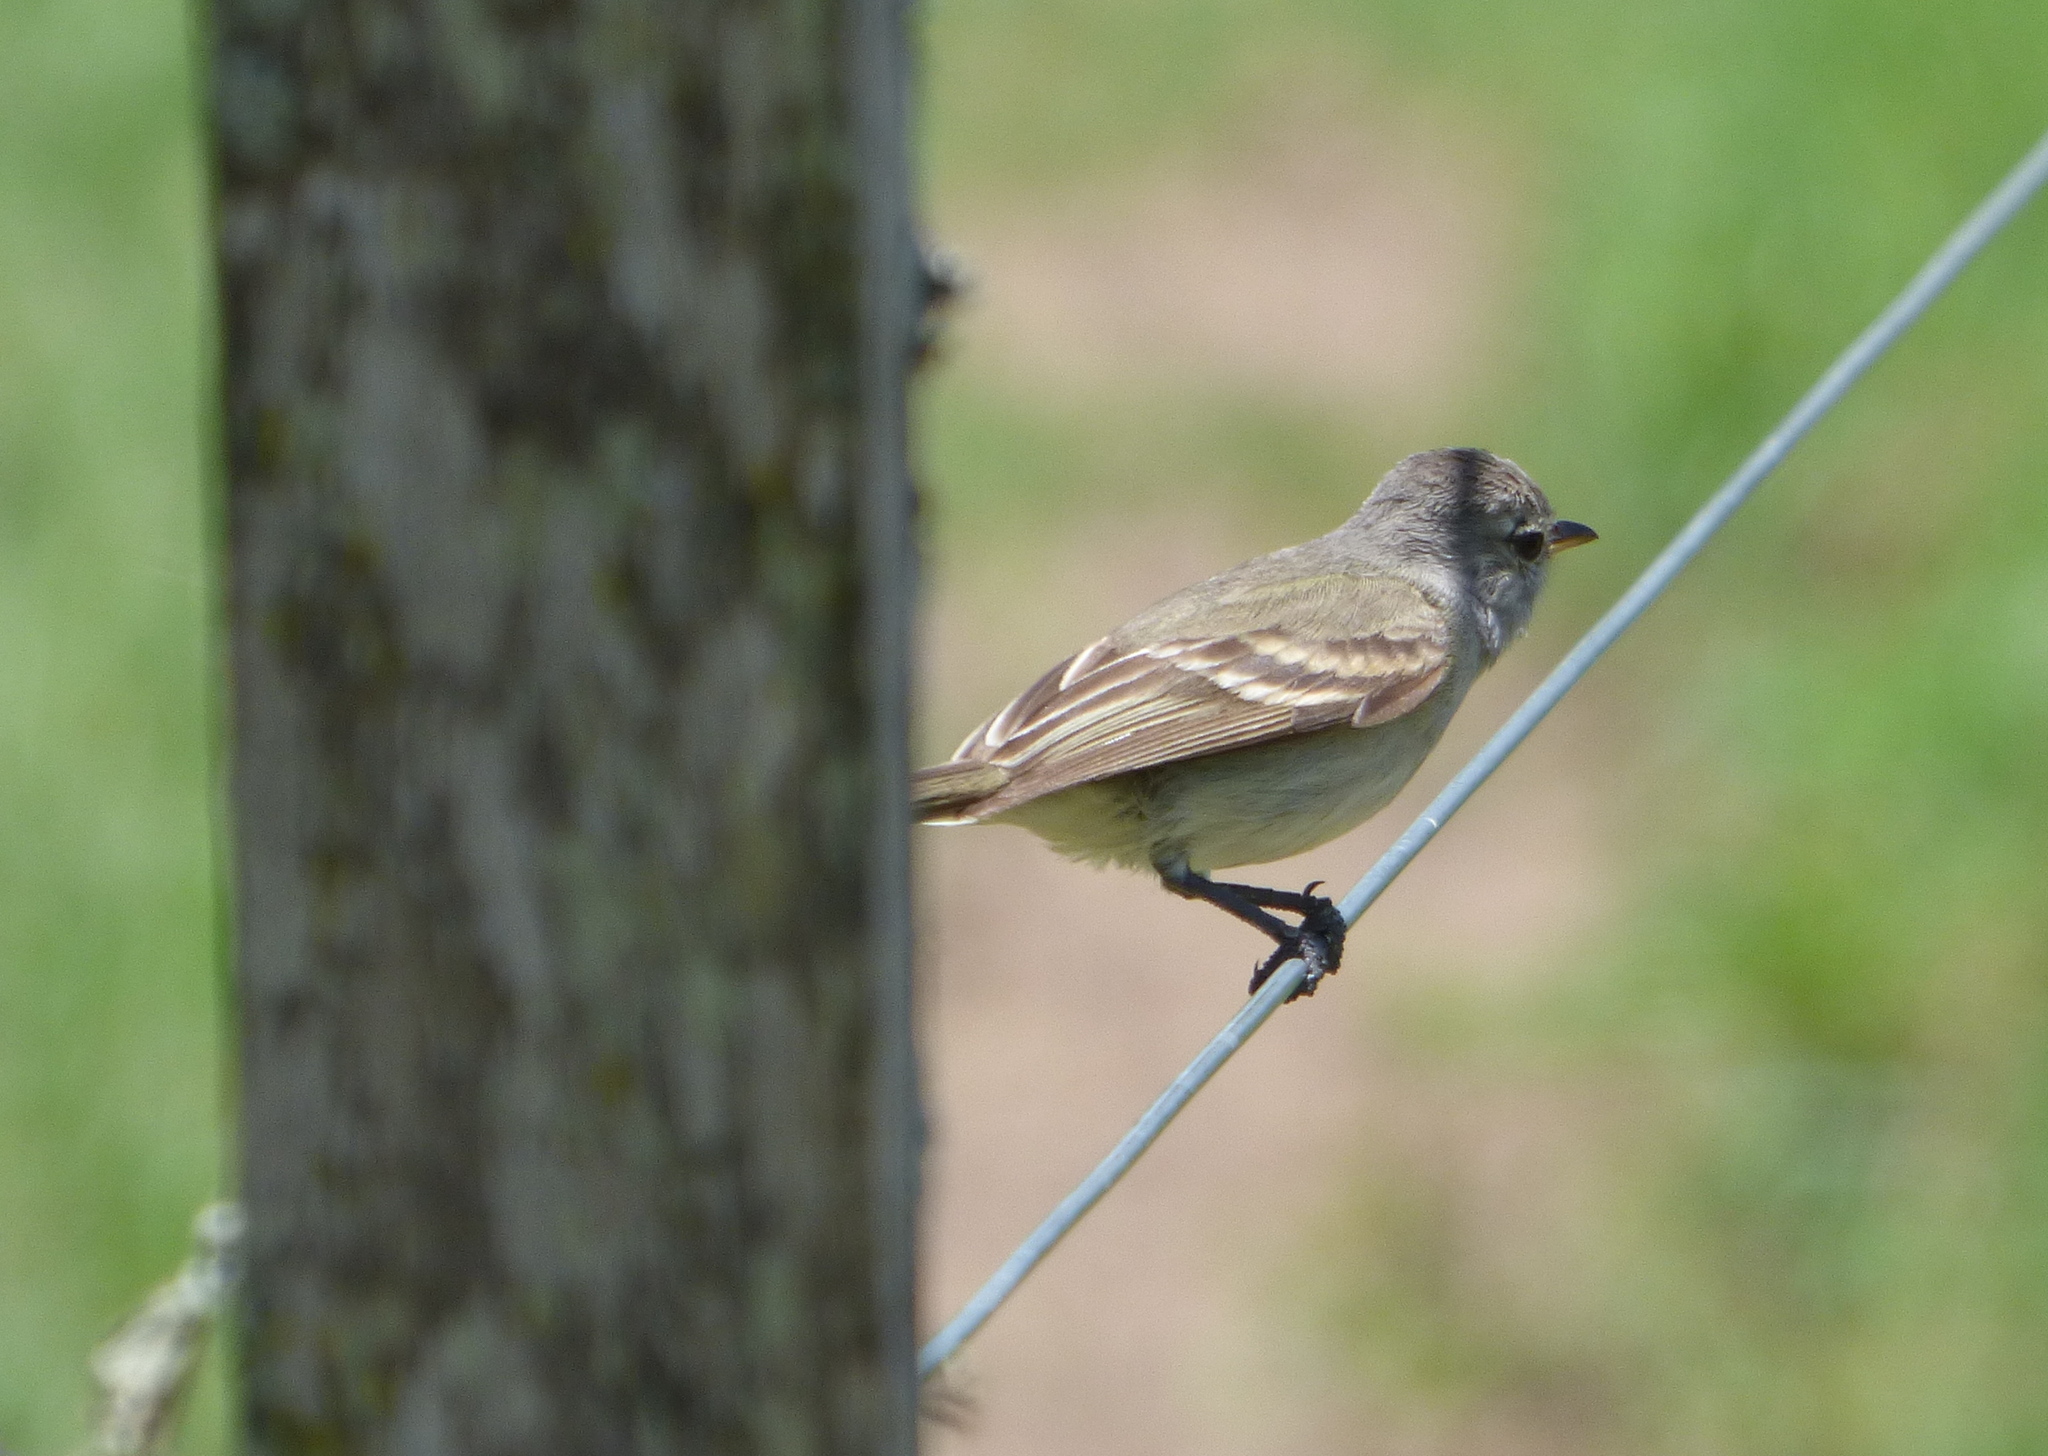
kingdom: Animalia
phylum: Chordata
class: Aves
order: Passeriformes
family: Tyrannidae
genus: Camptostoma
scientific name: Camptostoma obsoletum
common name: Southern beardless-tyrannulet
